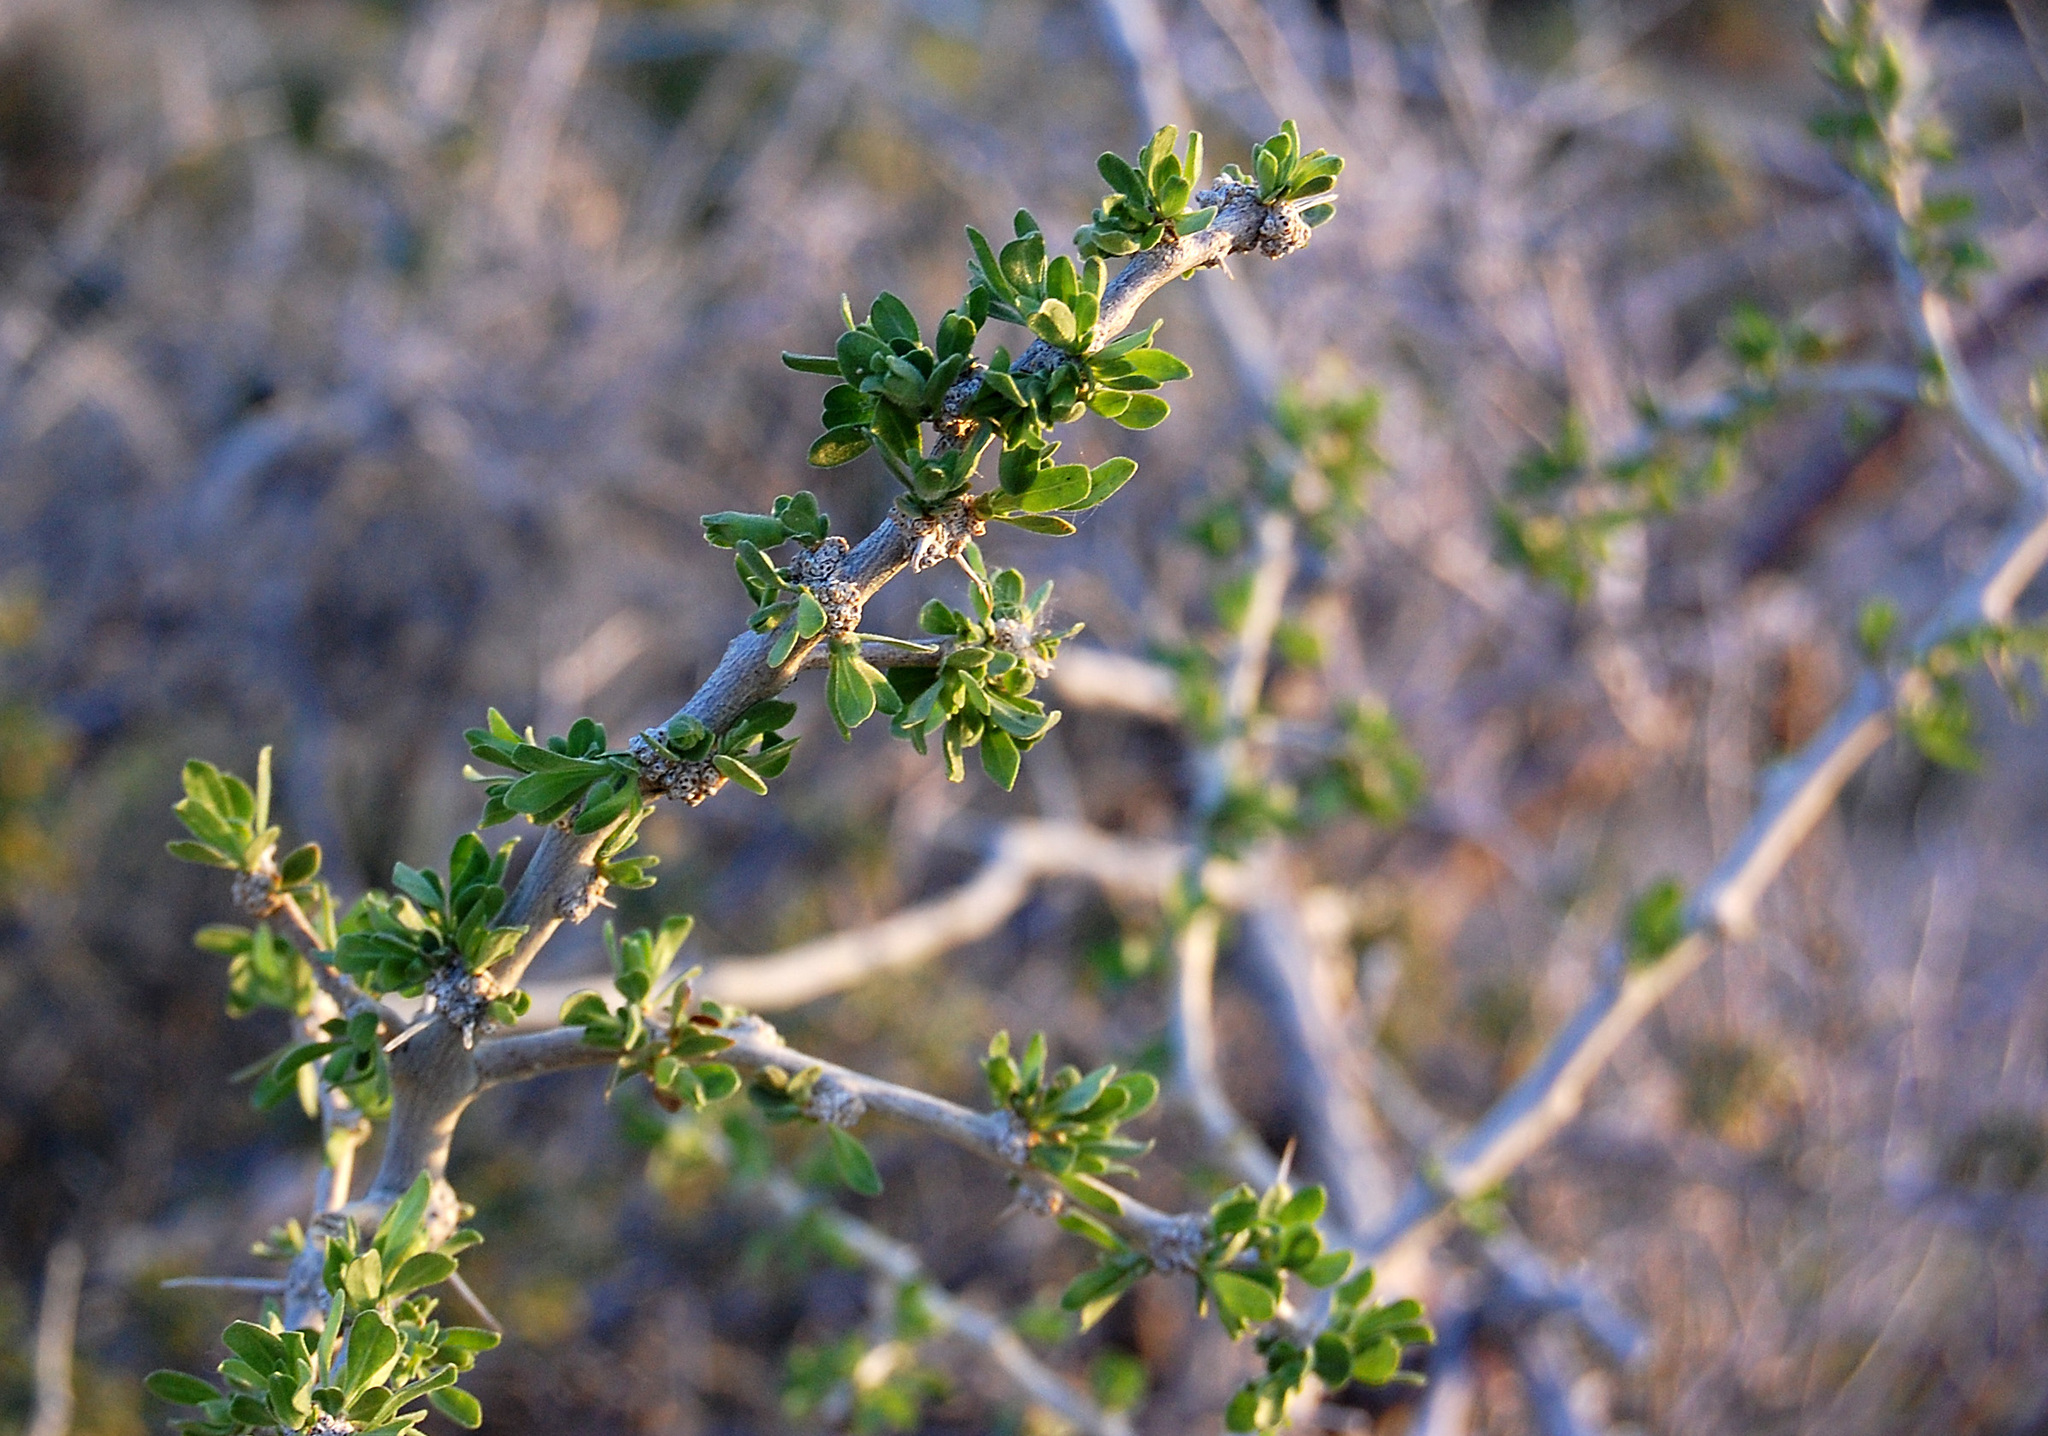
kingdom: Plantae
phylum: Tracheophyta
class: Magnoliopsida
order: Solanales
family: Solanaceae
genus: Lycium
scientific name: Lycium cooperi
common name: Peachthorn
